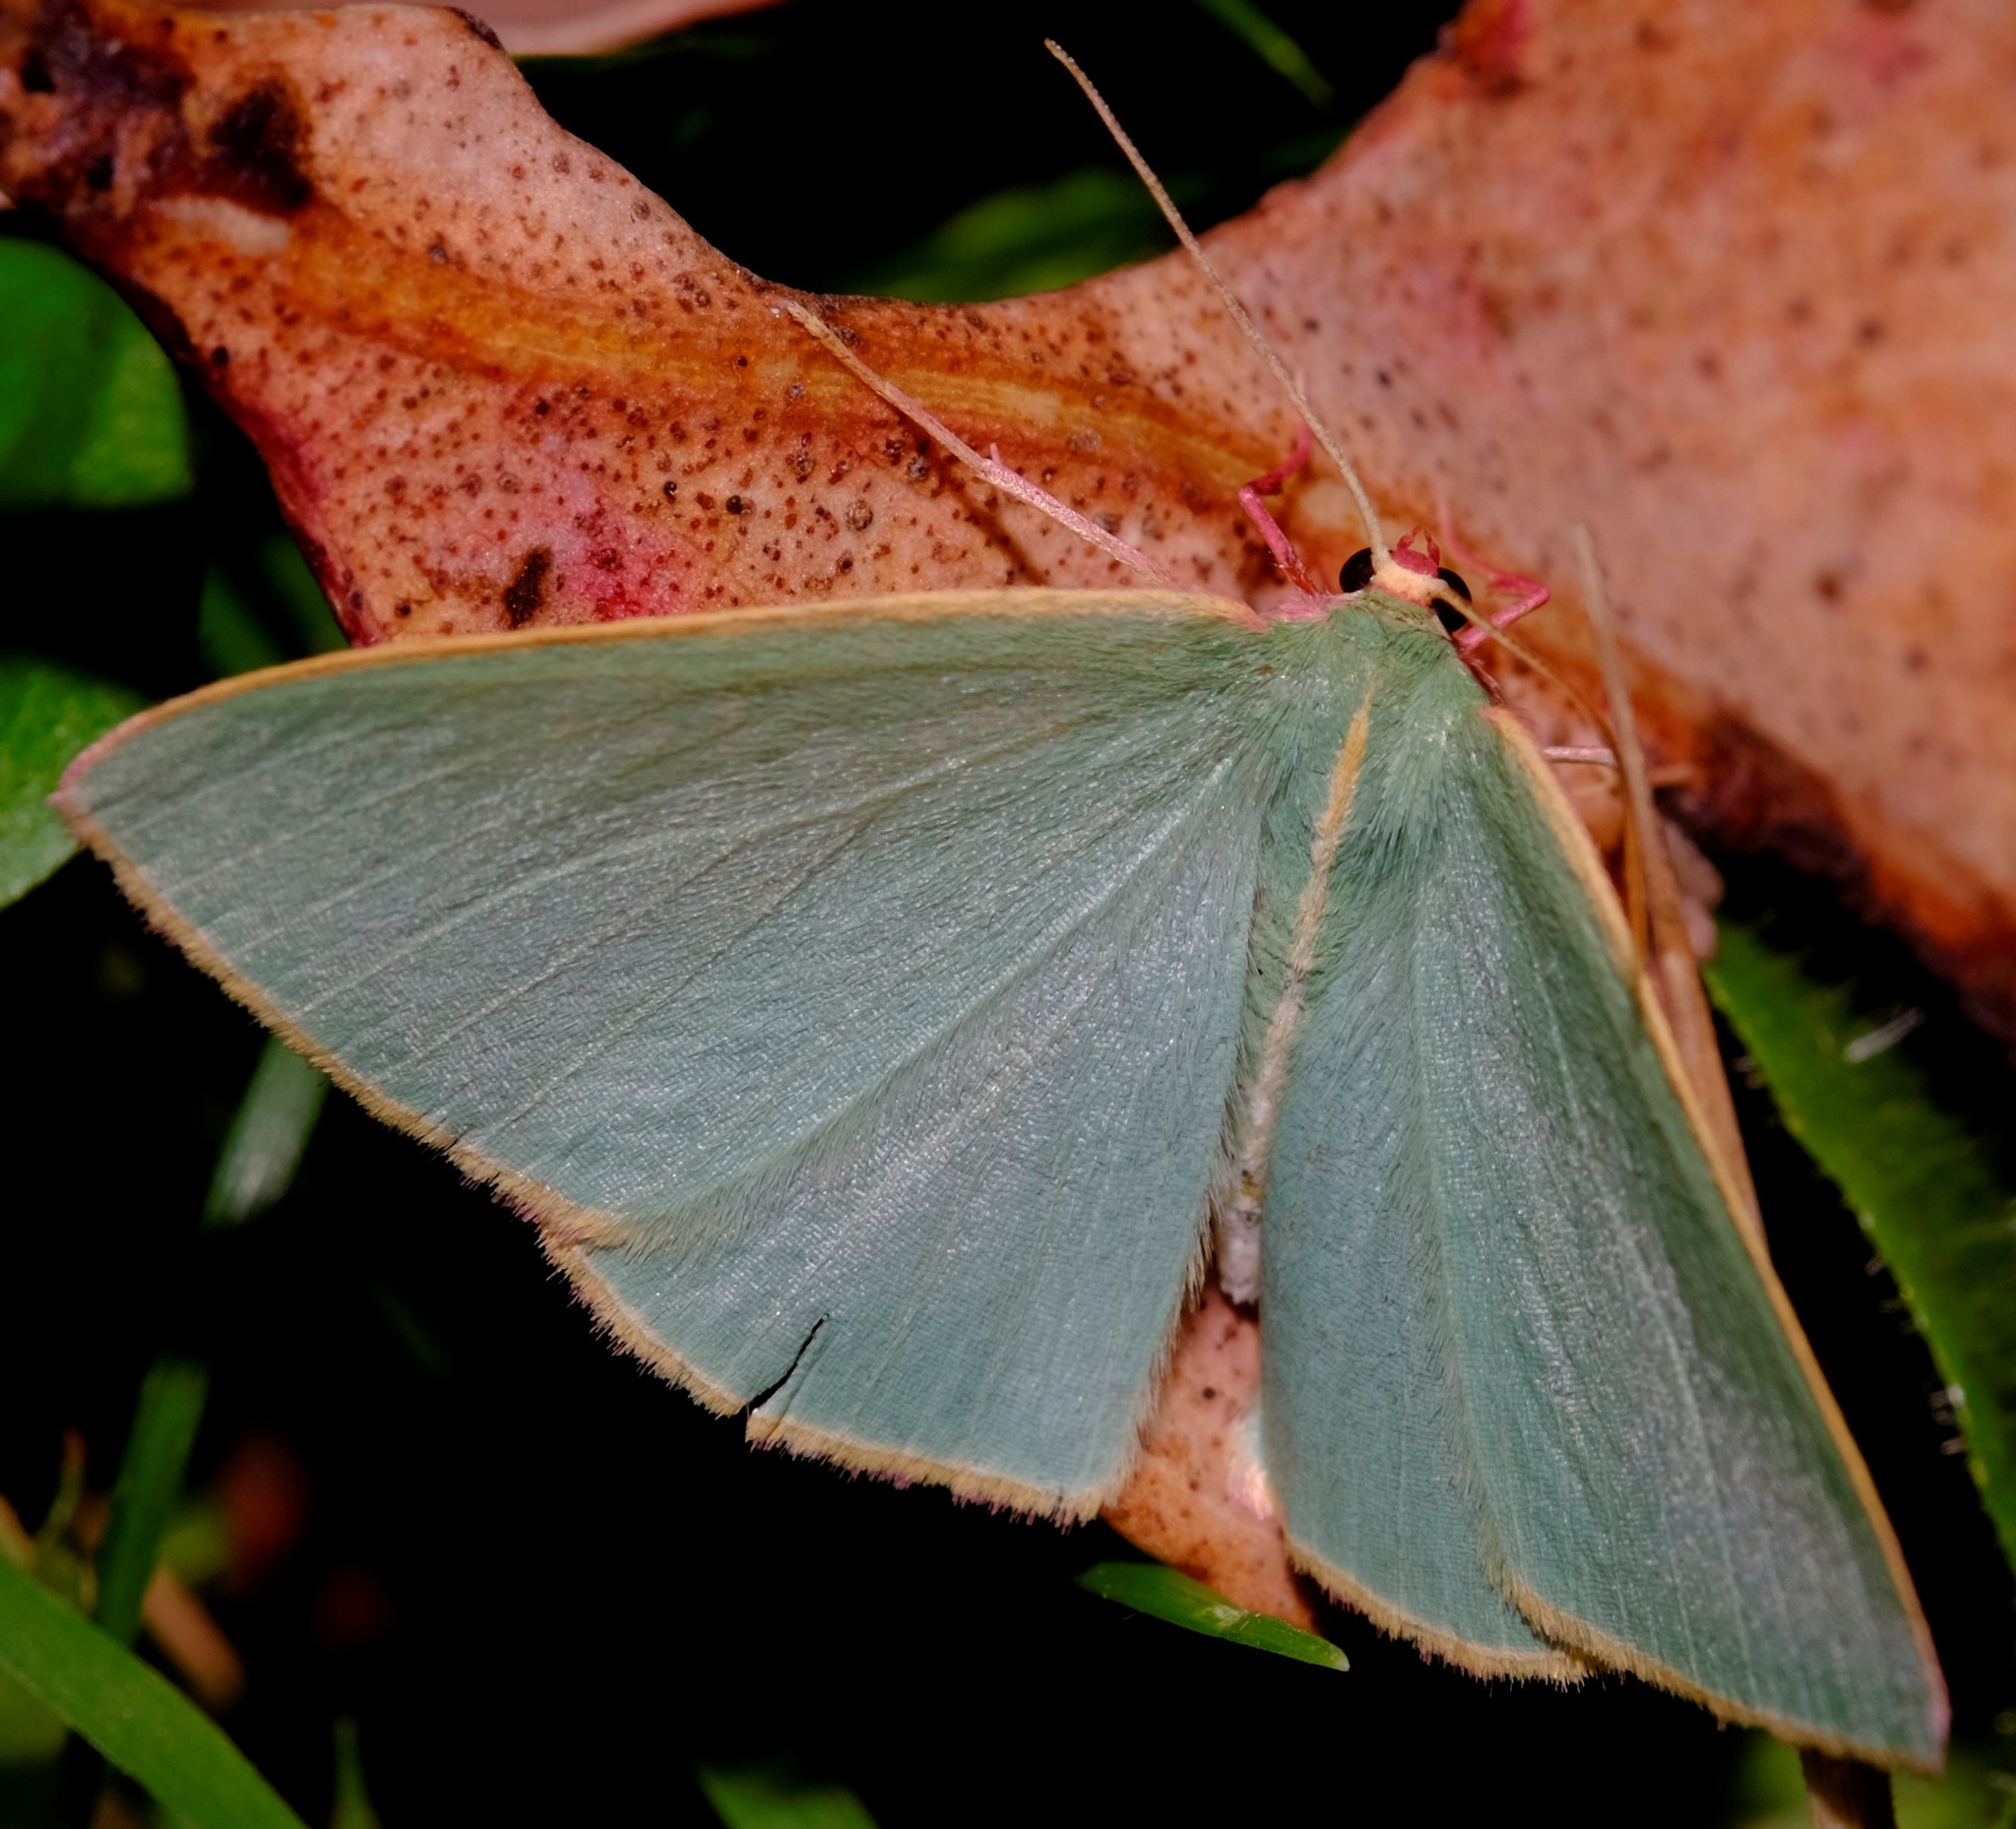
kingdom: Animalia
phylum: Arthropoda
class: Insecta
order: Lepidoptera
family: Geometridae
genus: Chlorocoma
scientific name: Chlorocoma assimilis
